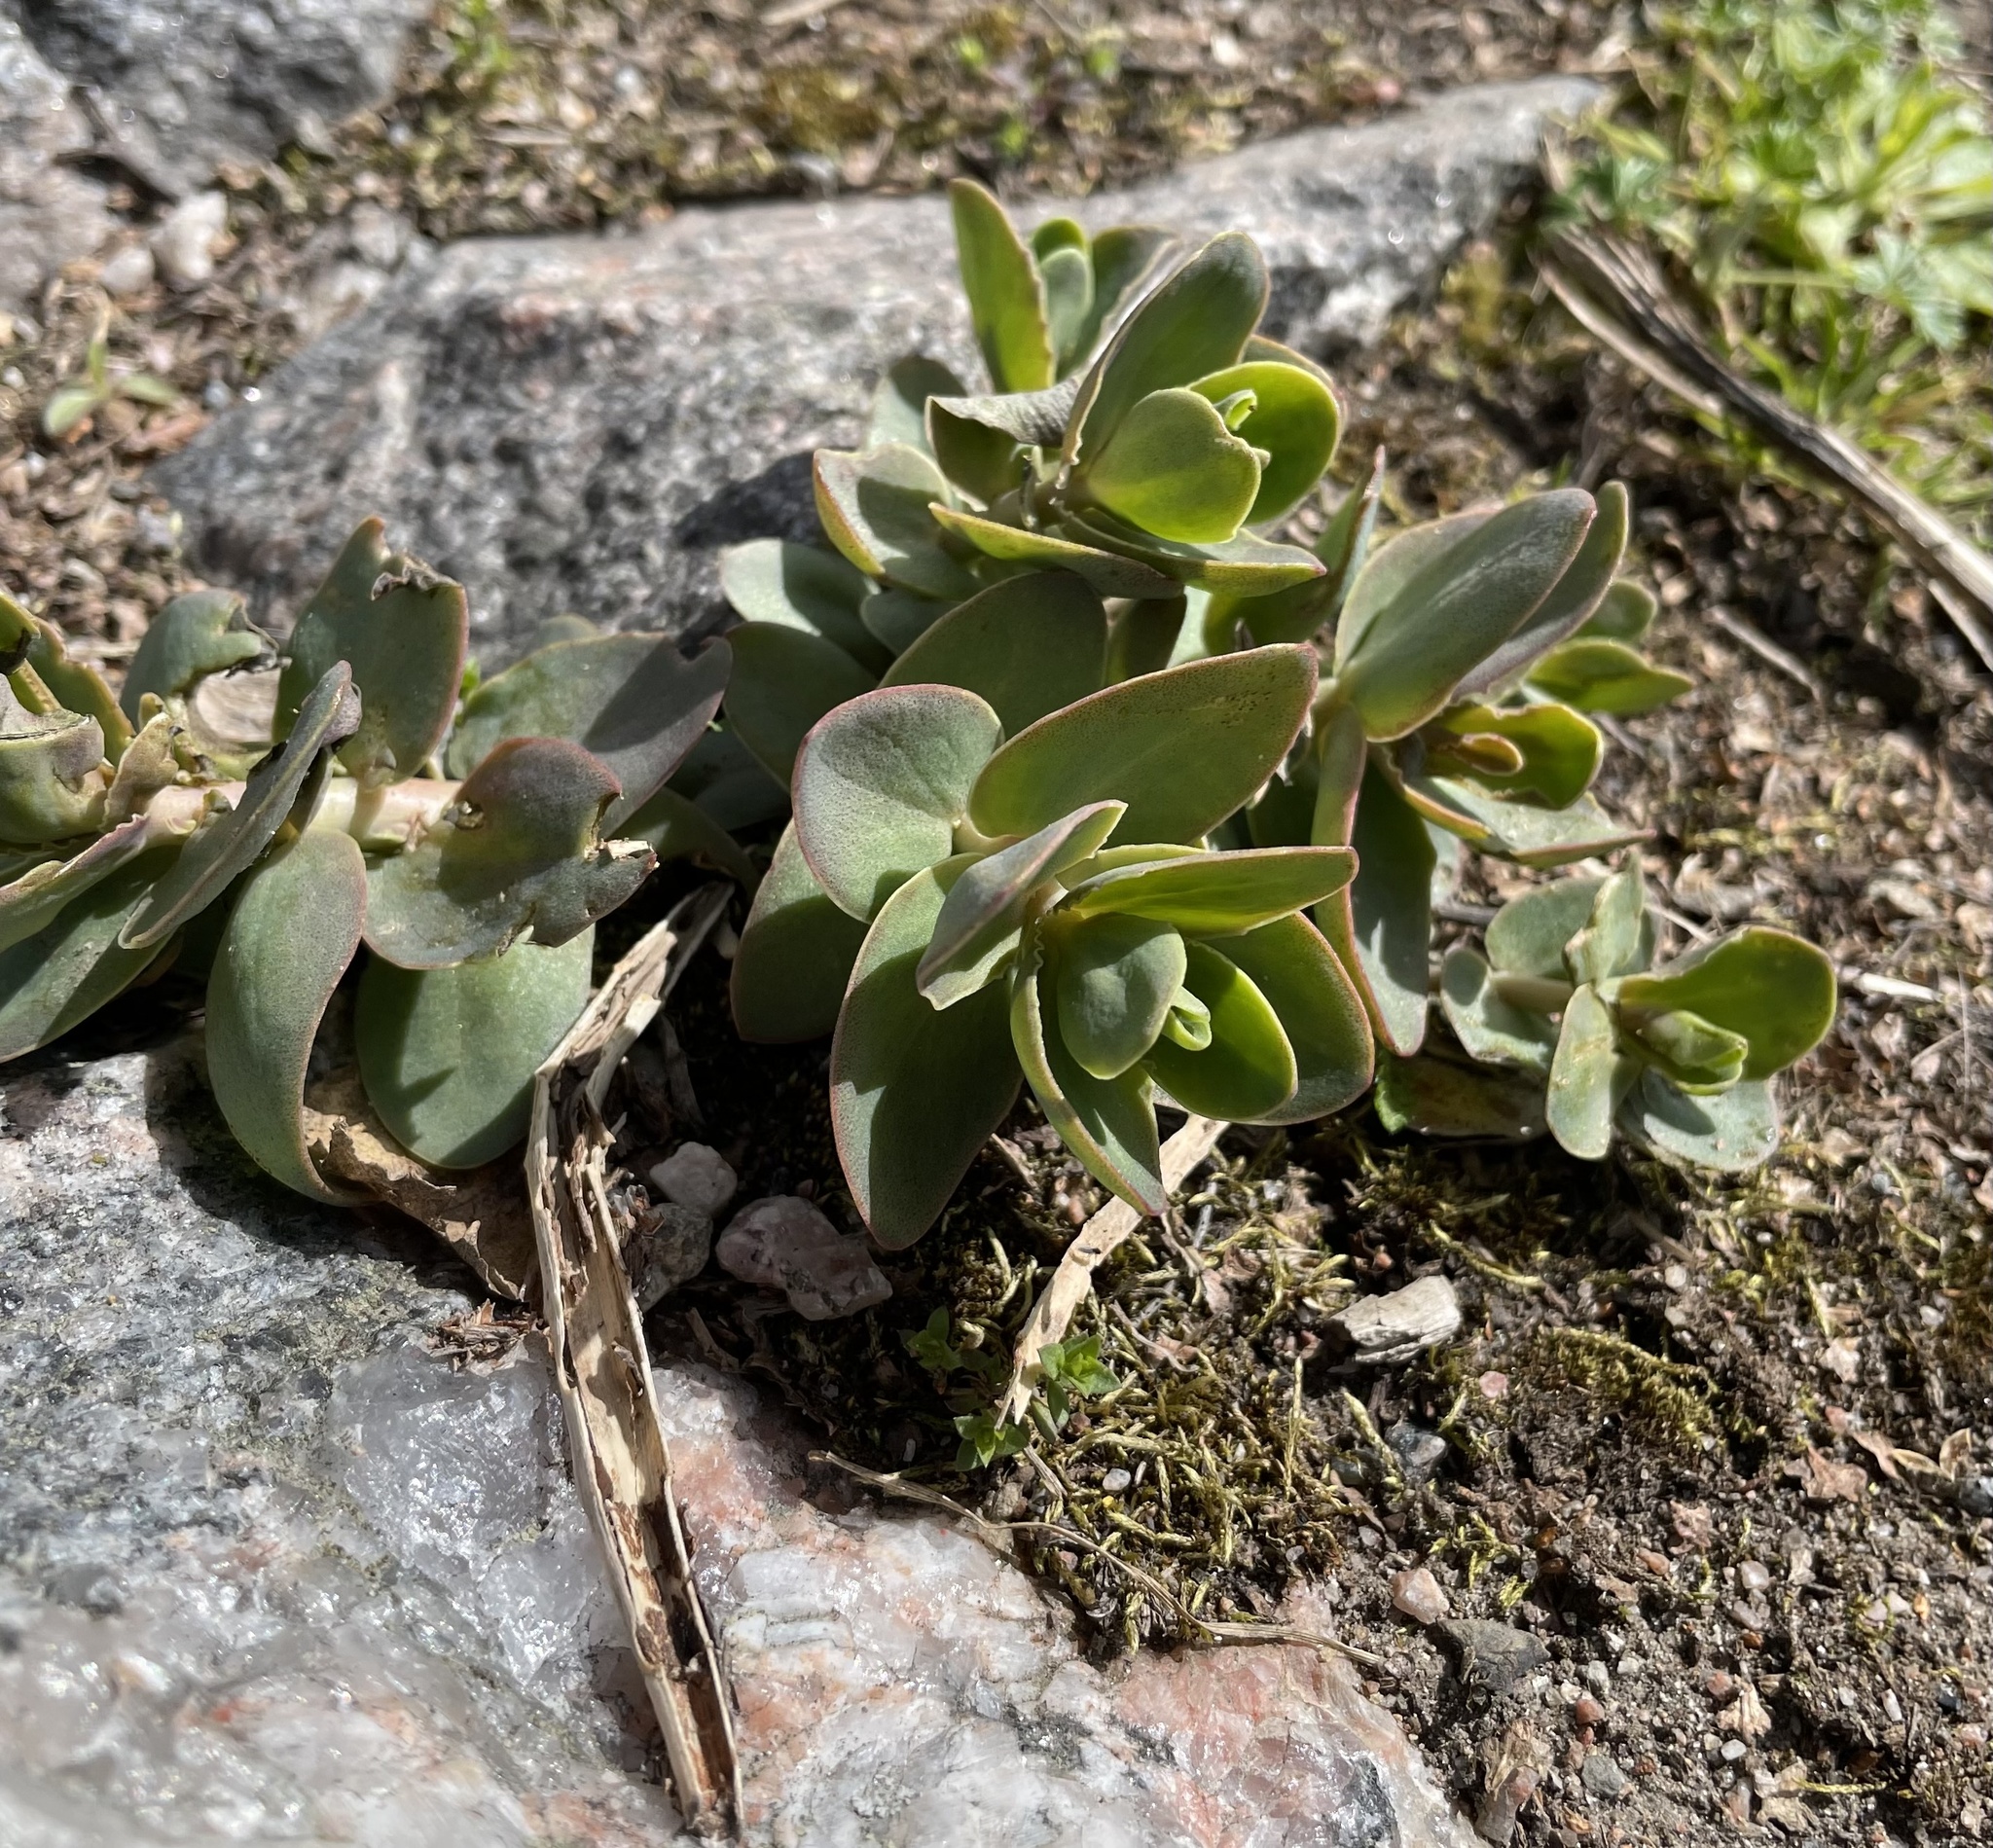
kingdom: Plantae
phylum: Tracheophyta
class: Magnoliopsida
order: Saxifragales
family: Crassulaceae
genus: Hylotelephium
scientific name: Hylotelephium maximum
